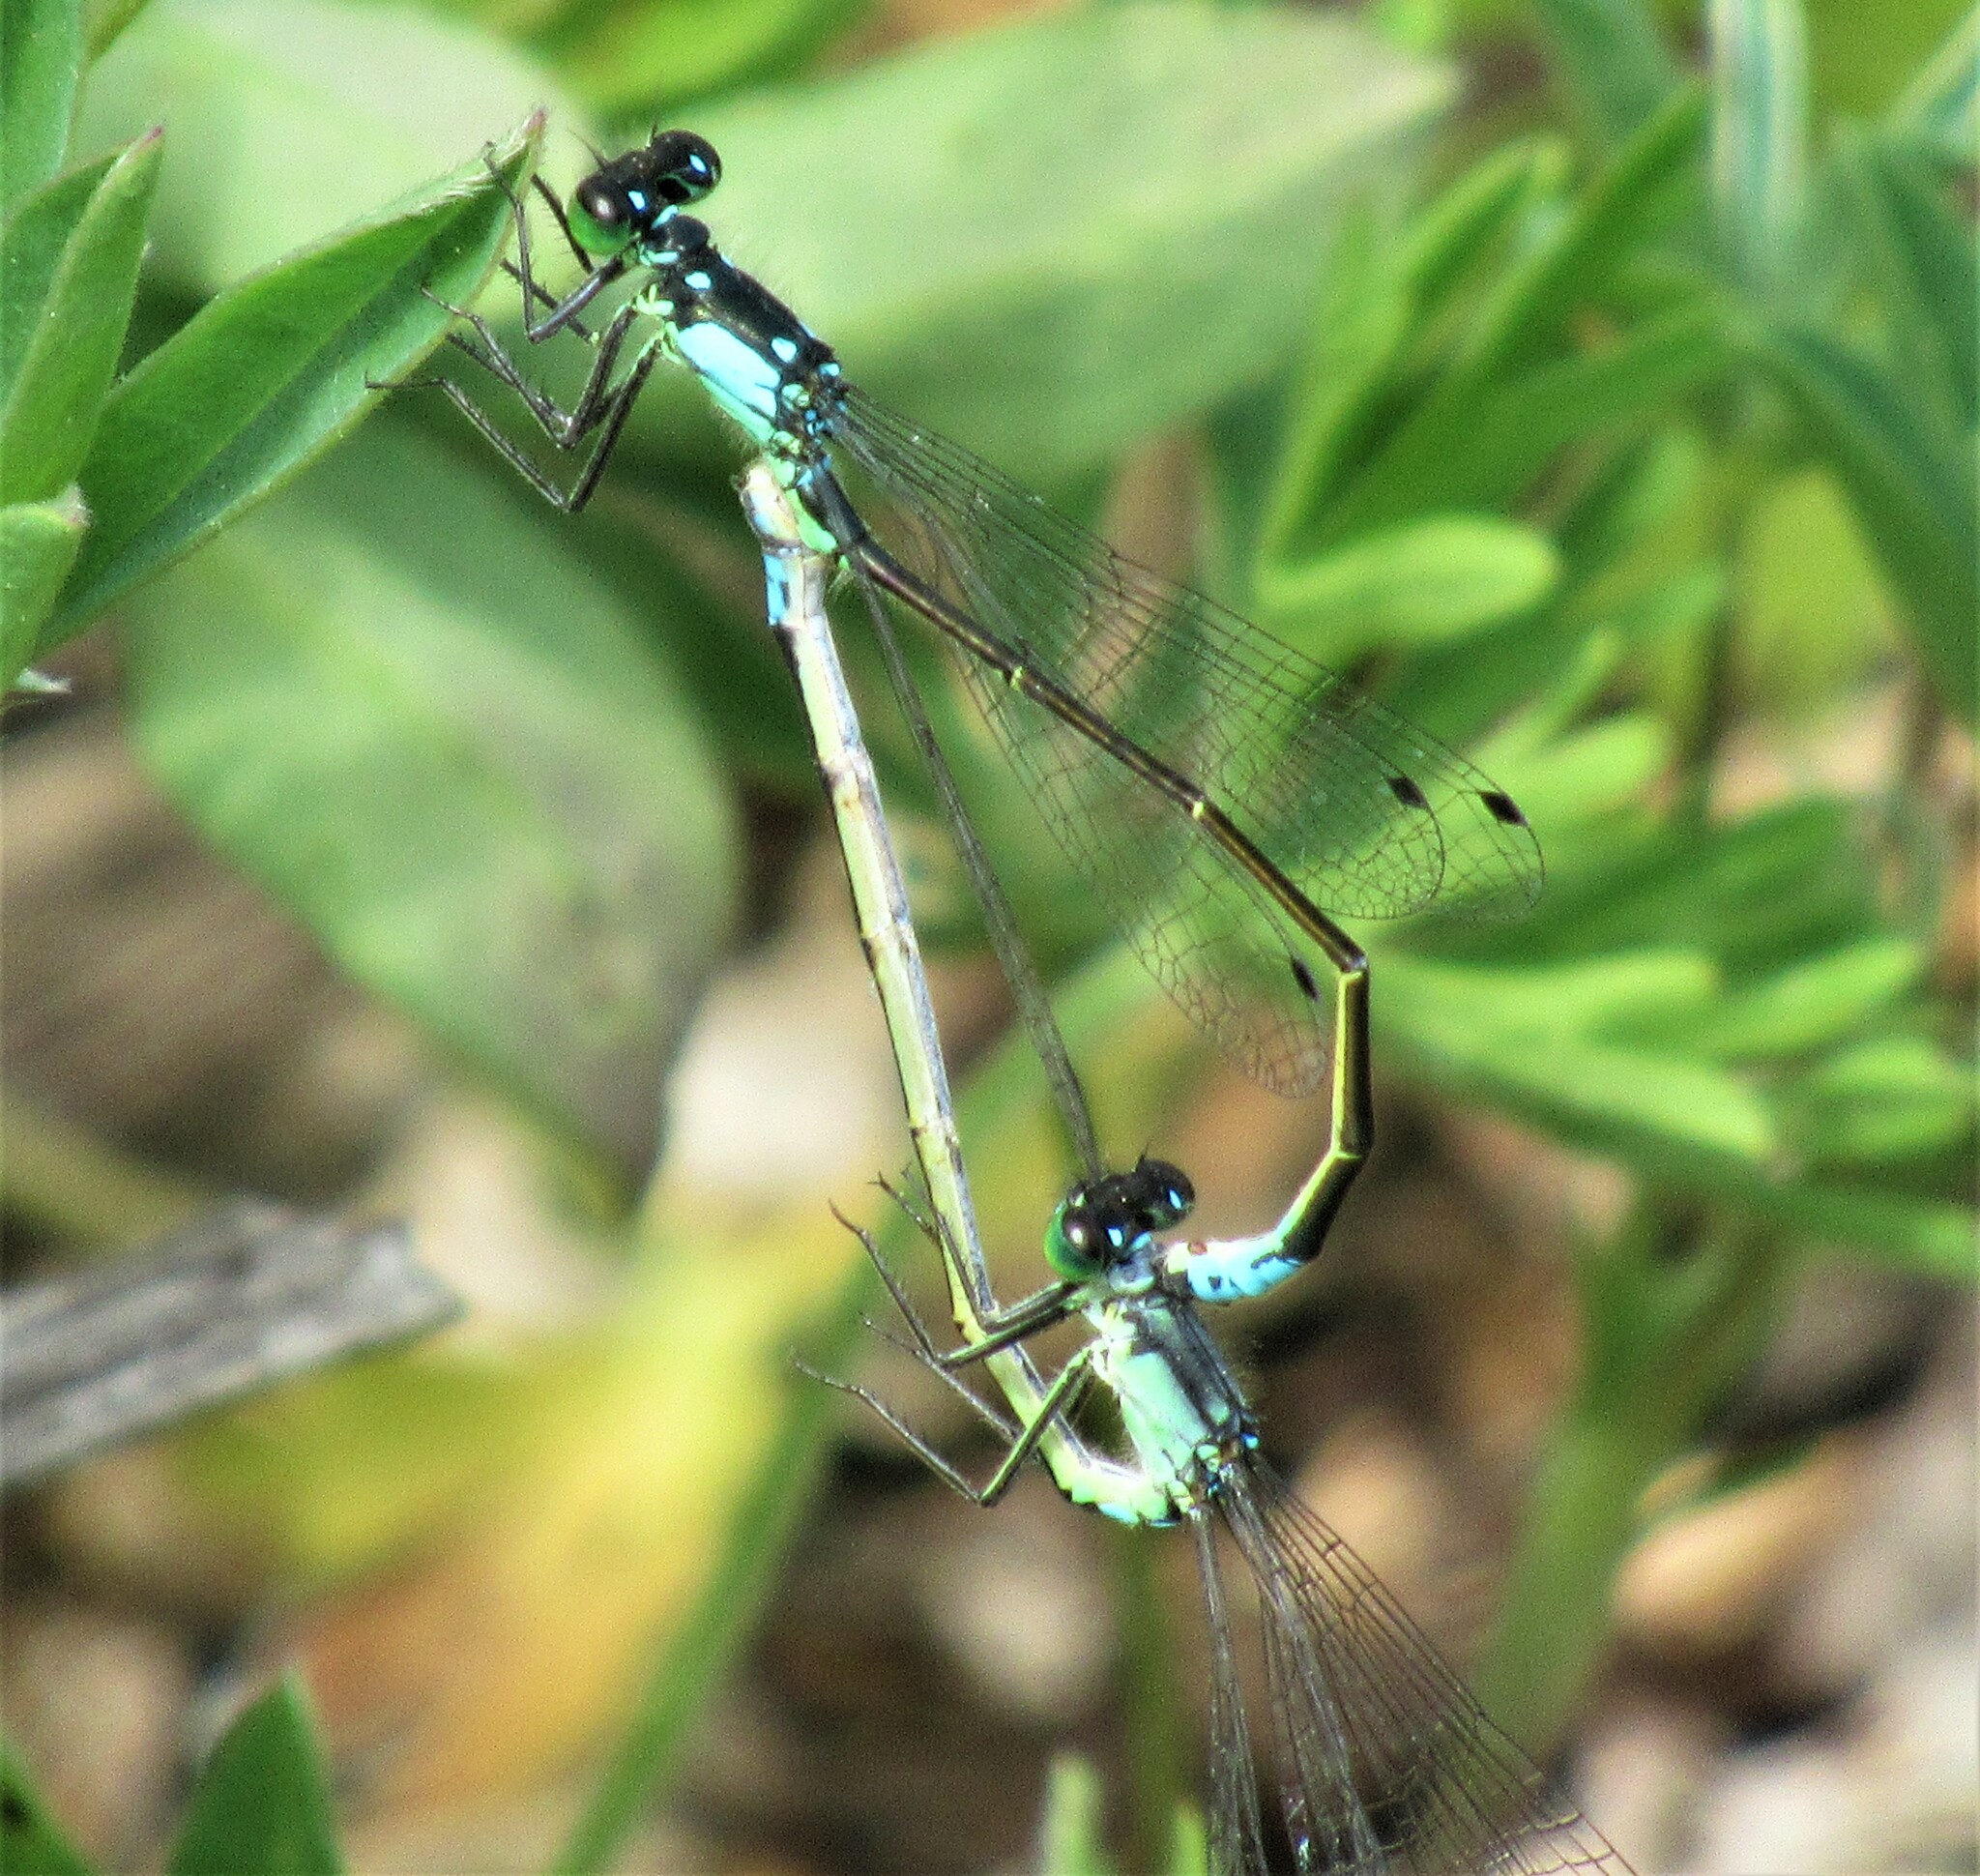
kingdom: Animalia
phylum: Arthropoda
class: Insecta
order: Odonata
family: Coenagrionidae
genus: Ischnura
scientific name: Ischnura cervula
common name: Pacific forktail
